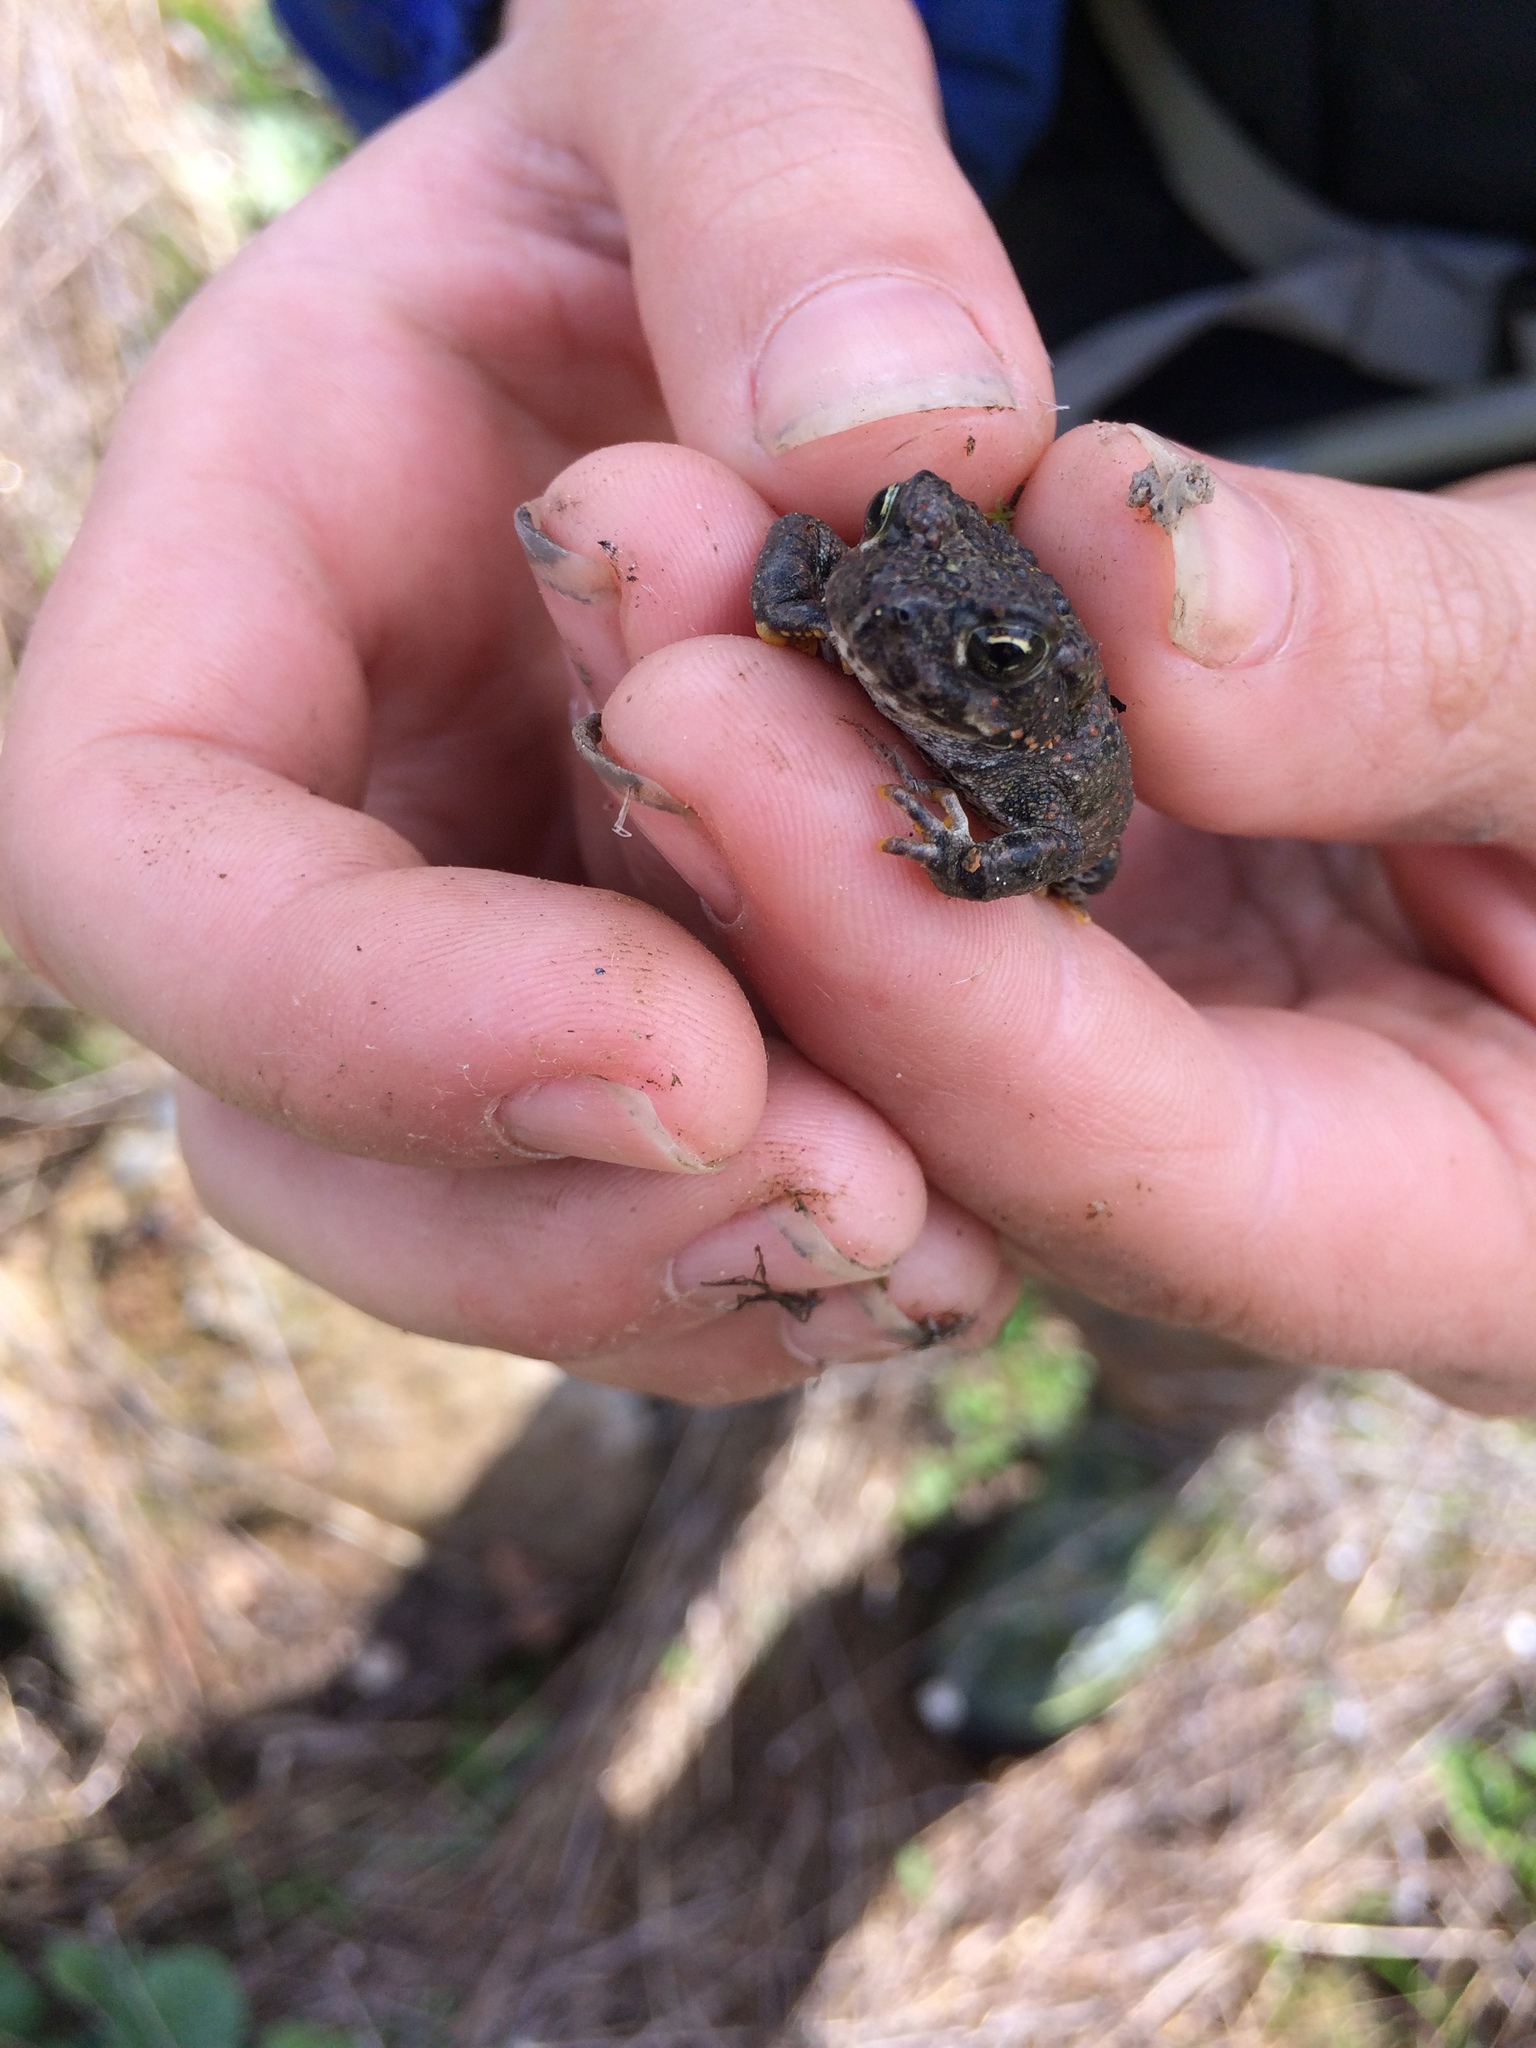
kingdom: Animalia
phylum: Chordata
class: Amphibia
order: Anura
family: Bufonidae
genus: Anaxyrus
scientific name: Anaxyrus boreas
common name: Western toad
